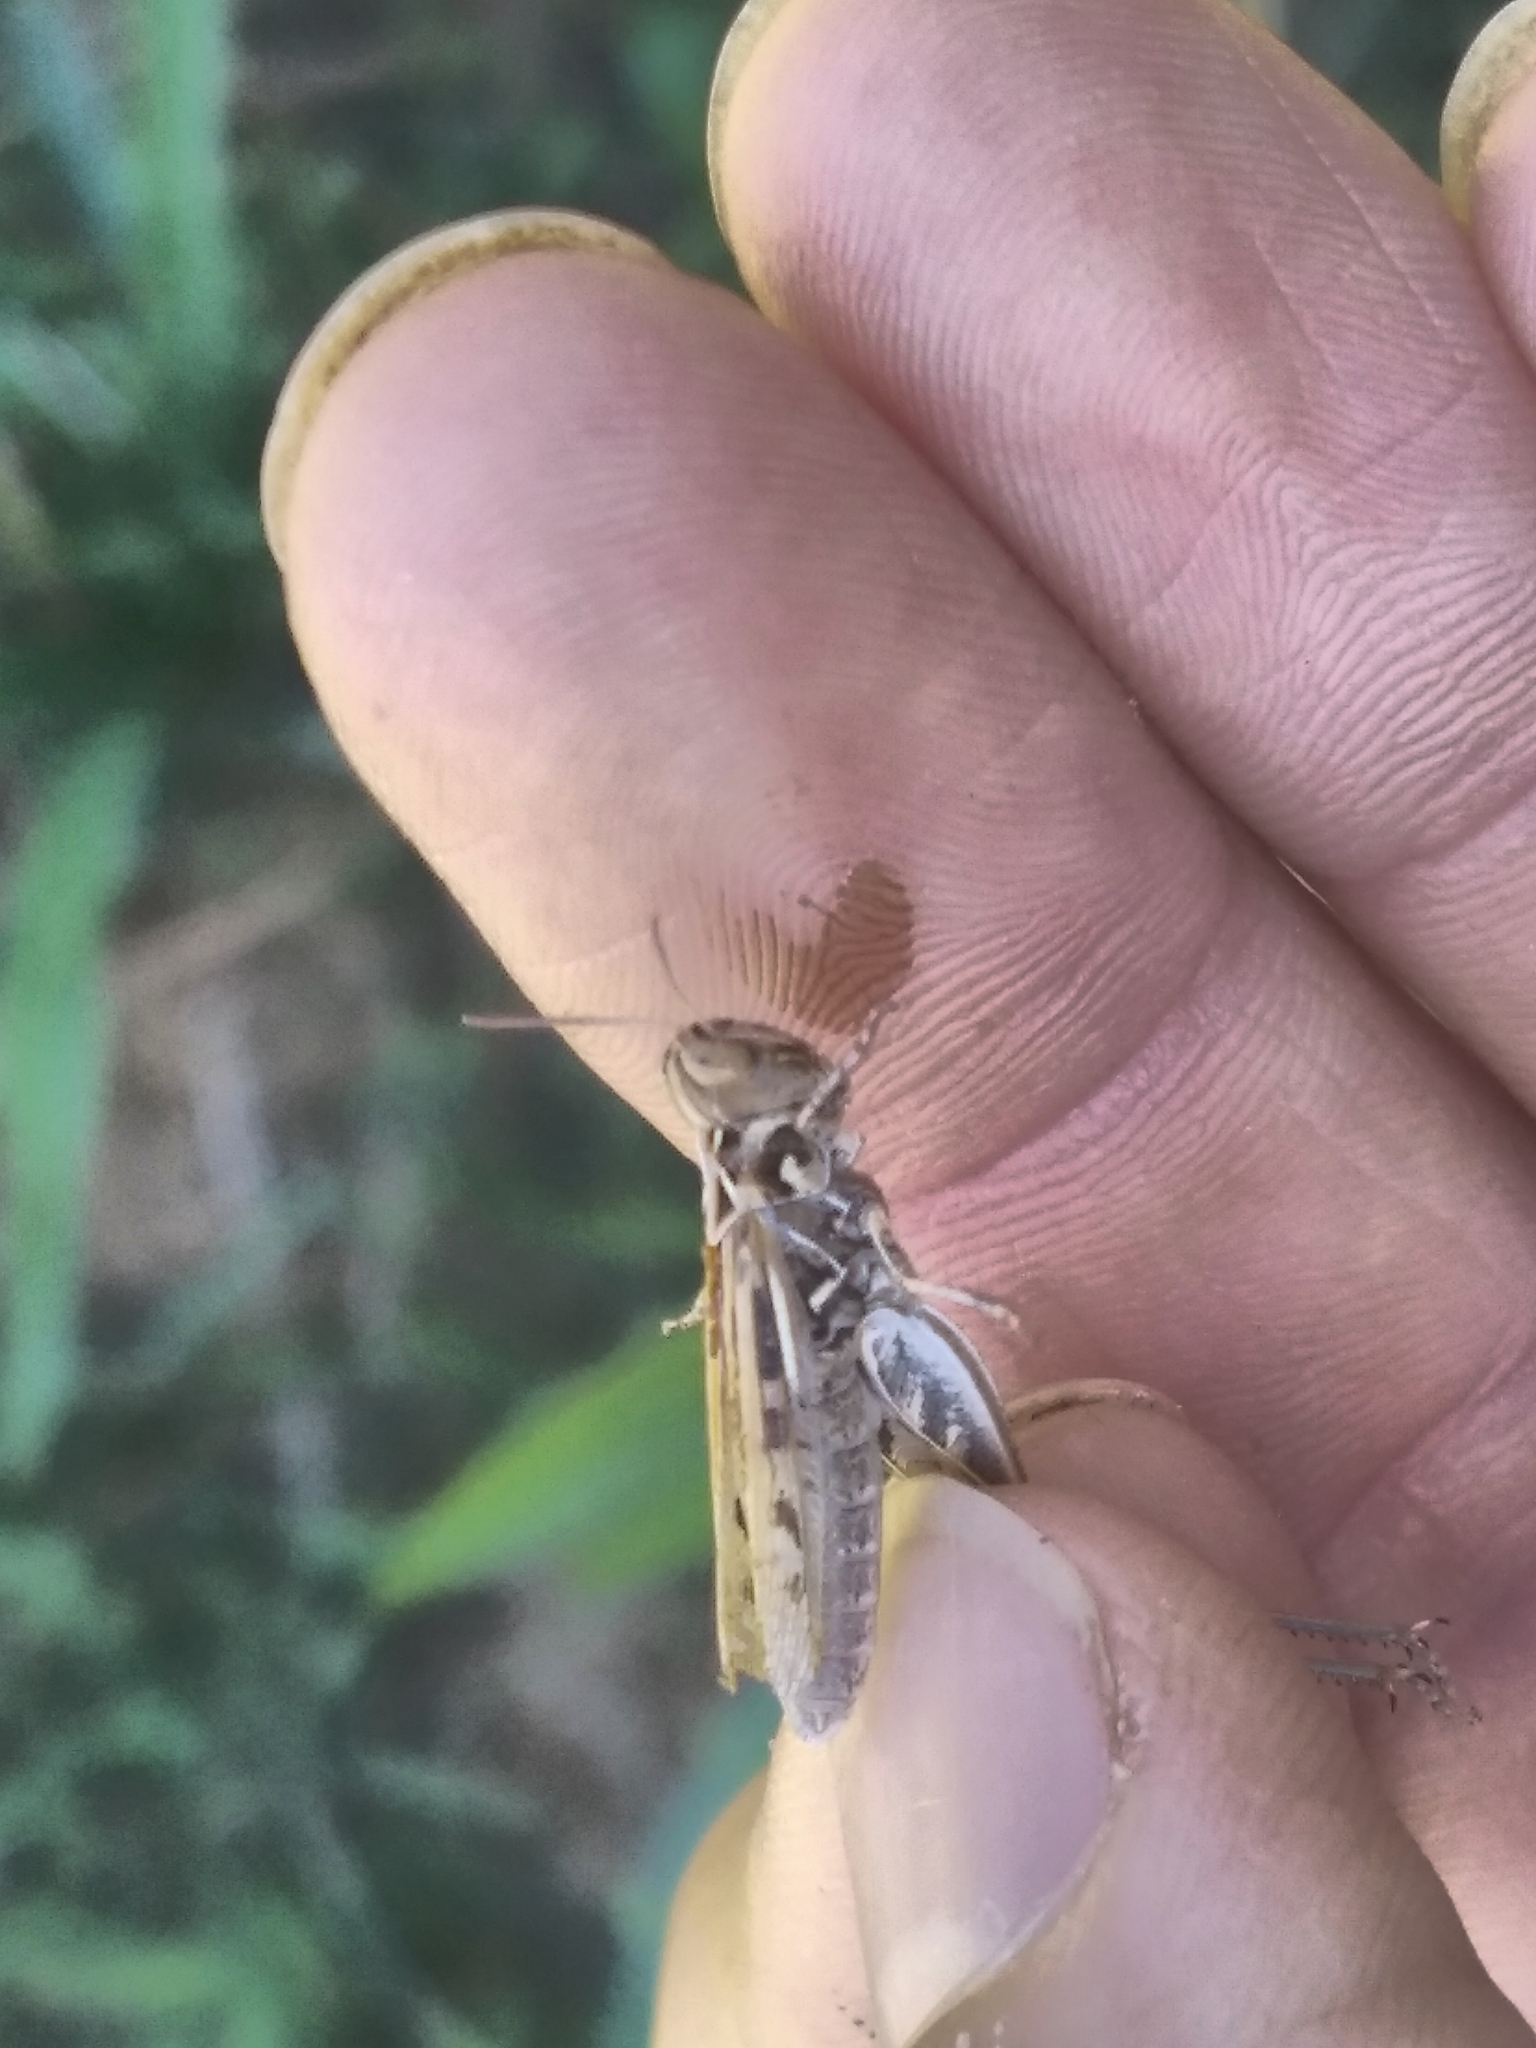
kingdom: Animalia
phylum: Arthropoda
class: Insecta
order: Orthoptera
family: Acrididae
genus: Dociostaurus
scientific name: Dociostaurus jagoi
